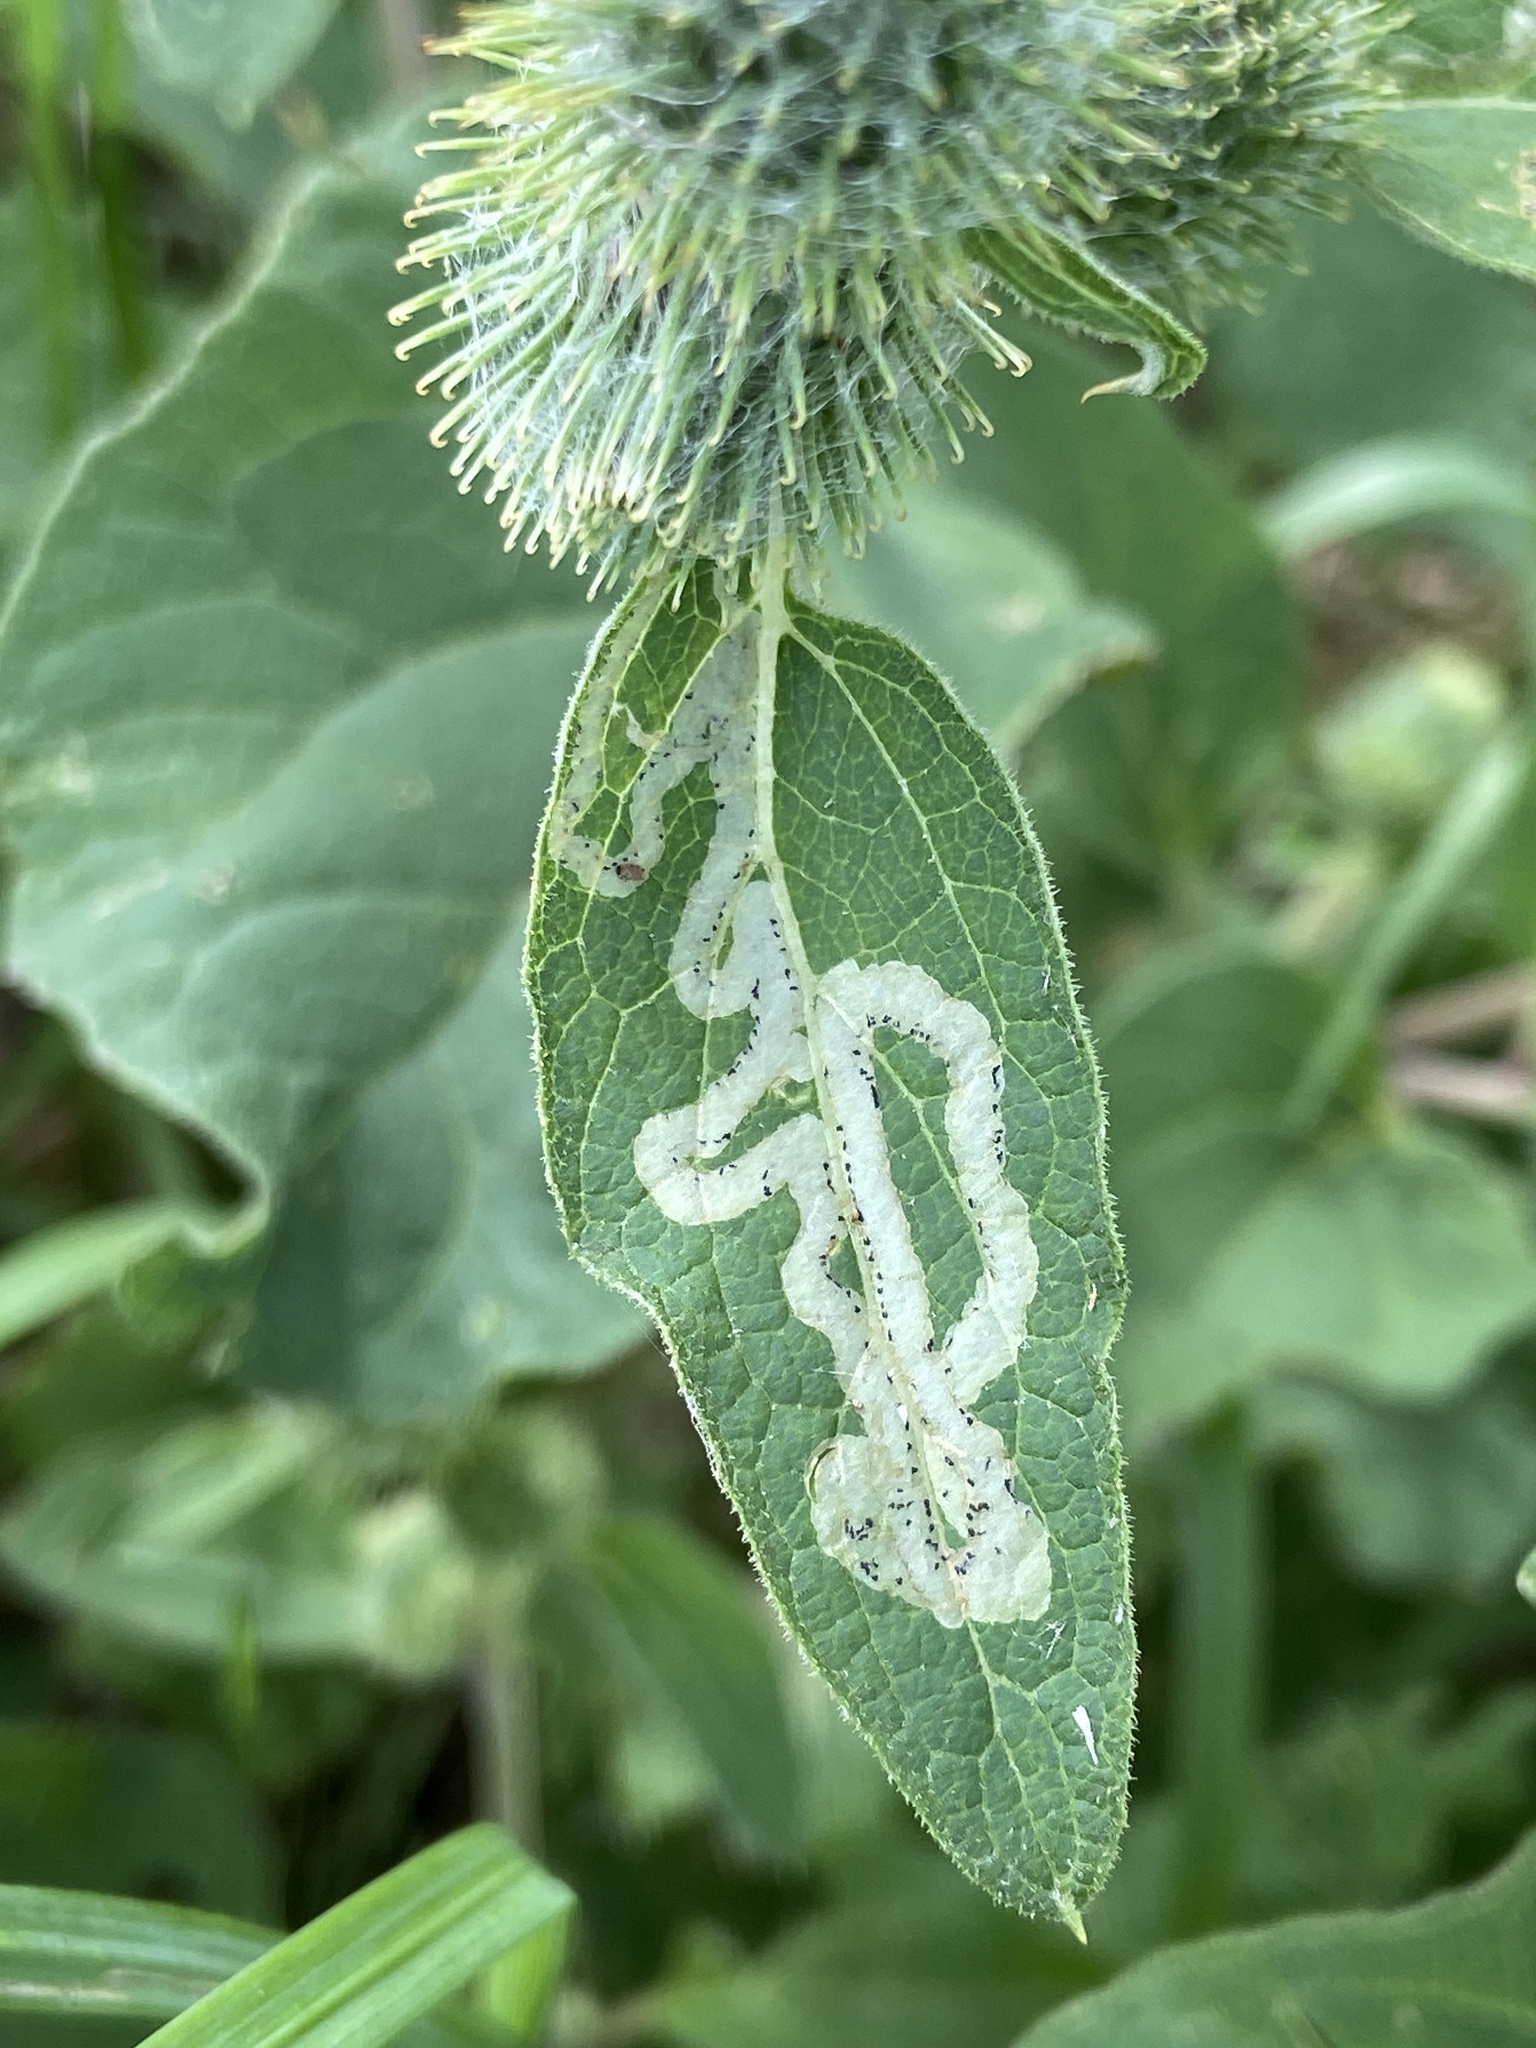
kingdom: Animalia
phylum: Arthropoda
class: Insecta
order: Diptera
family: Agromyzidae
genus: Phytomyza
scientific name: Phytomyza lappae
